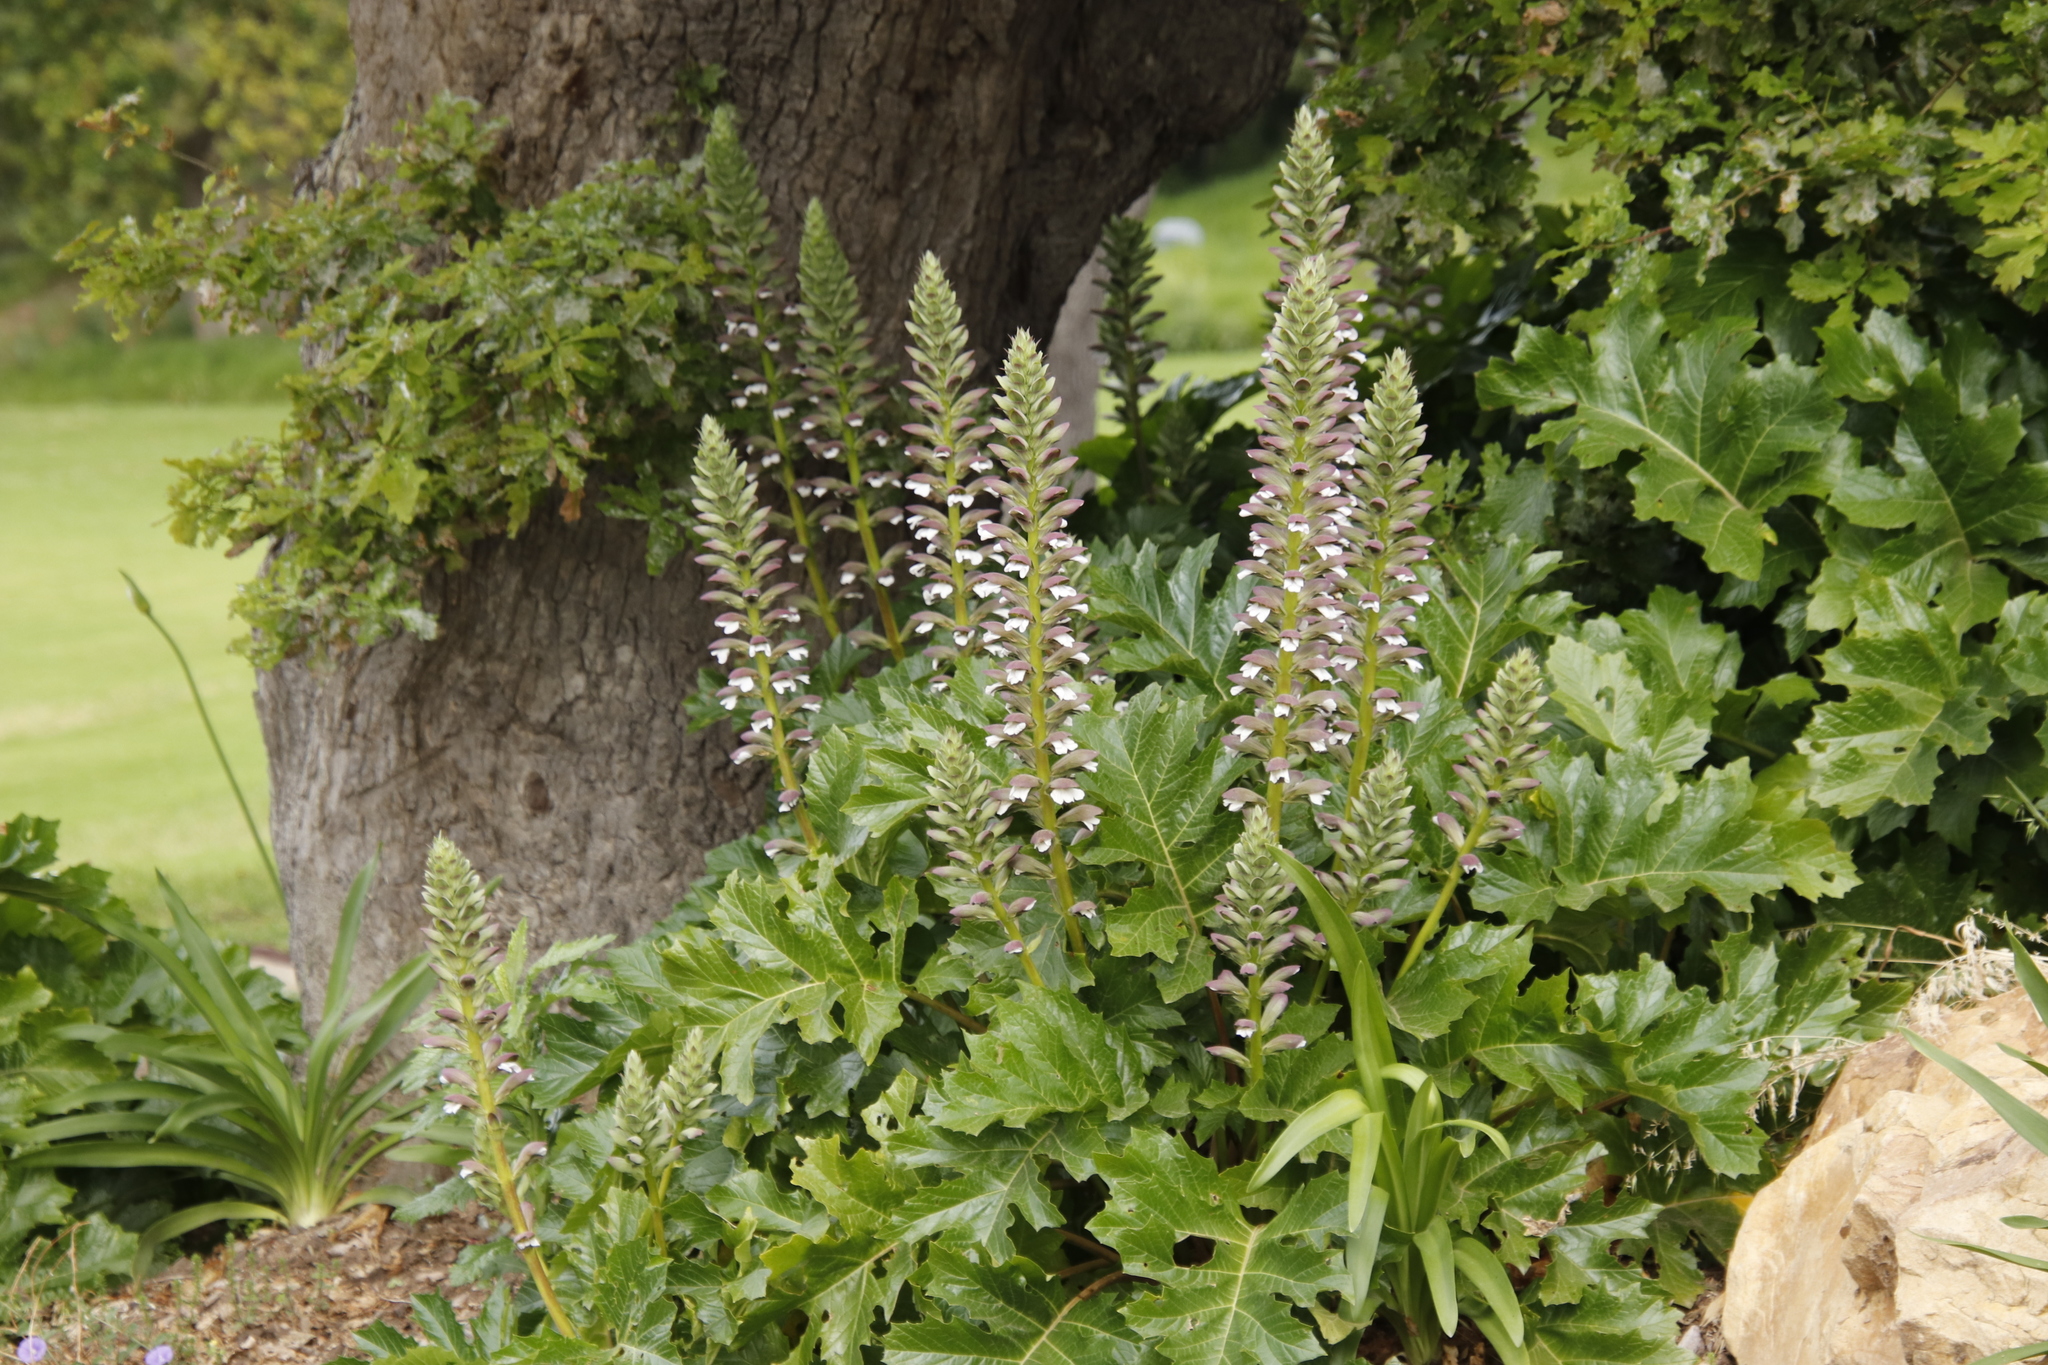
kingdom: Plantae
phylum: Tracheophyta
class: Magnoliopsida
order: Lamiales
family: Acanthaceae
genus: Acanthus
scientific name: Acanthus mollis
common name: Bear's-breech
